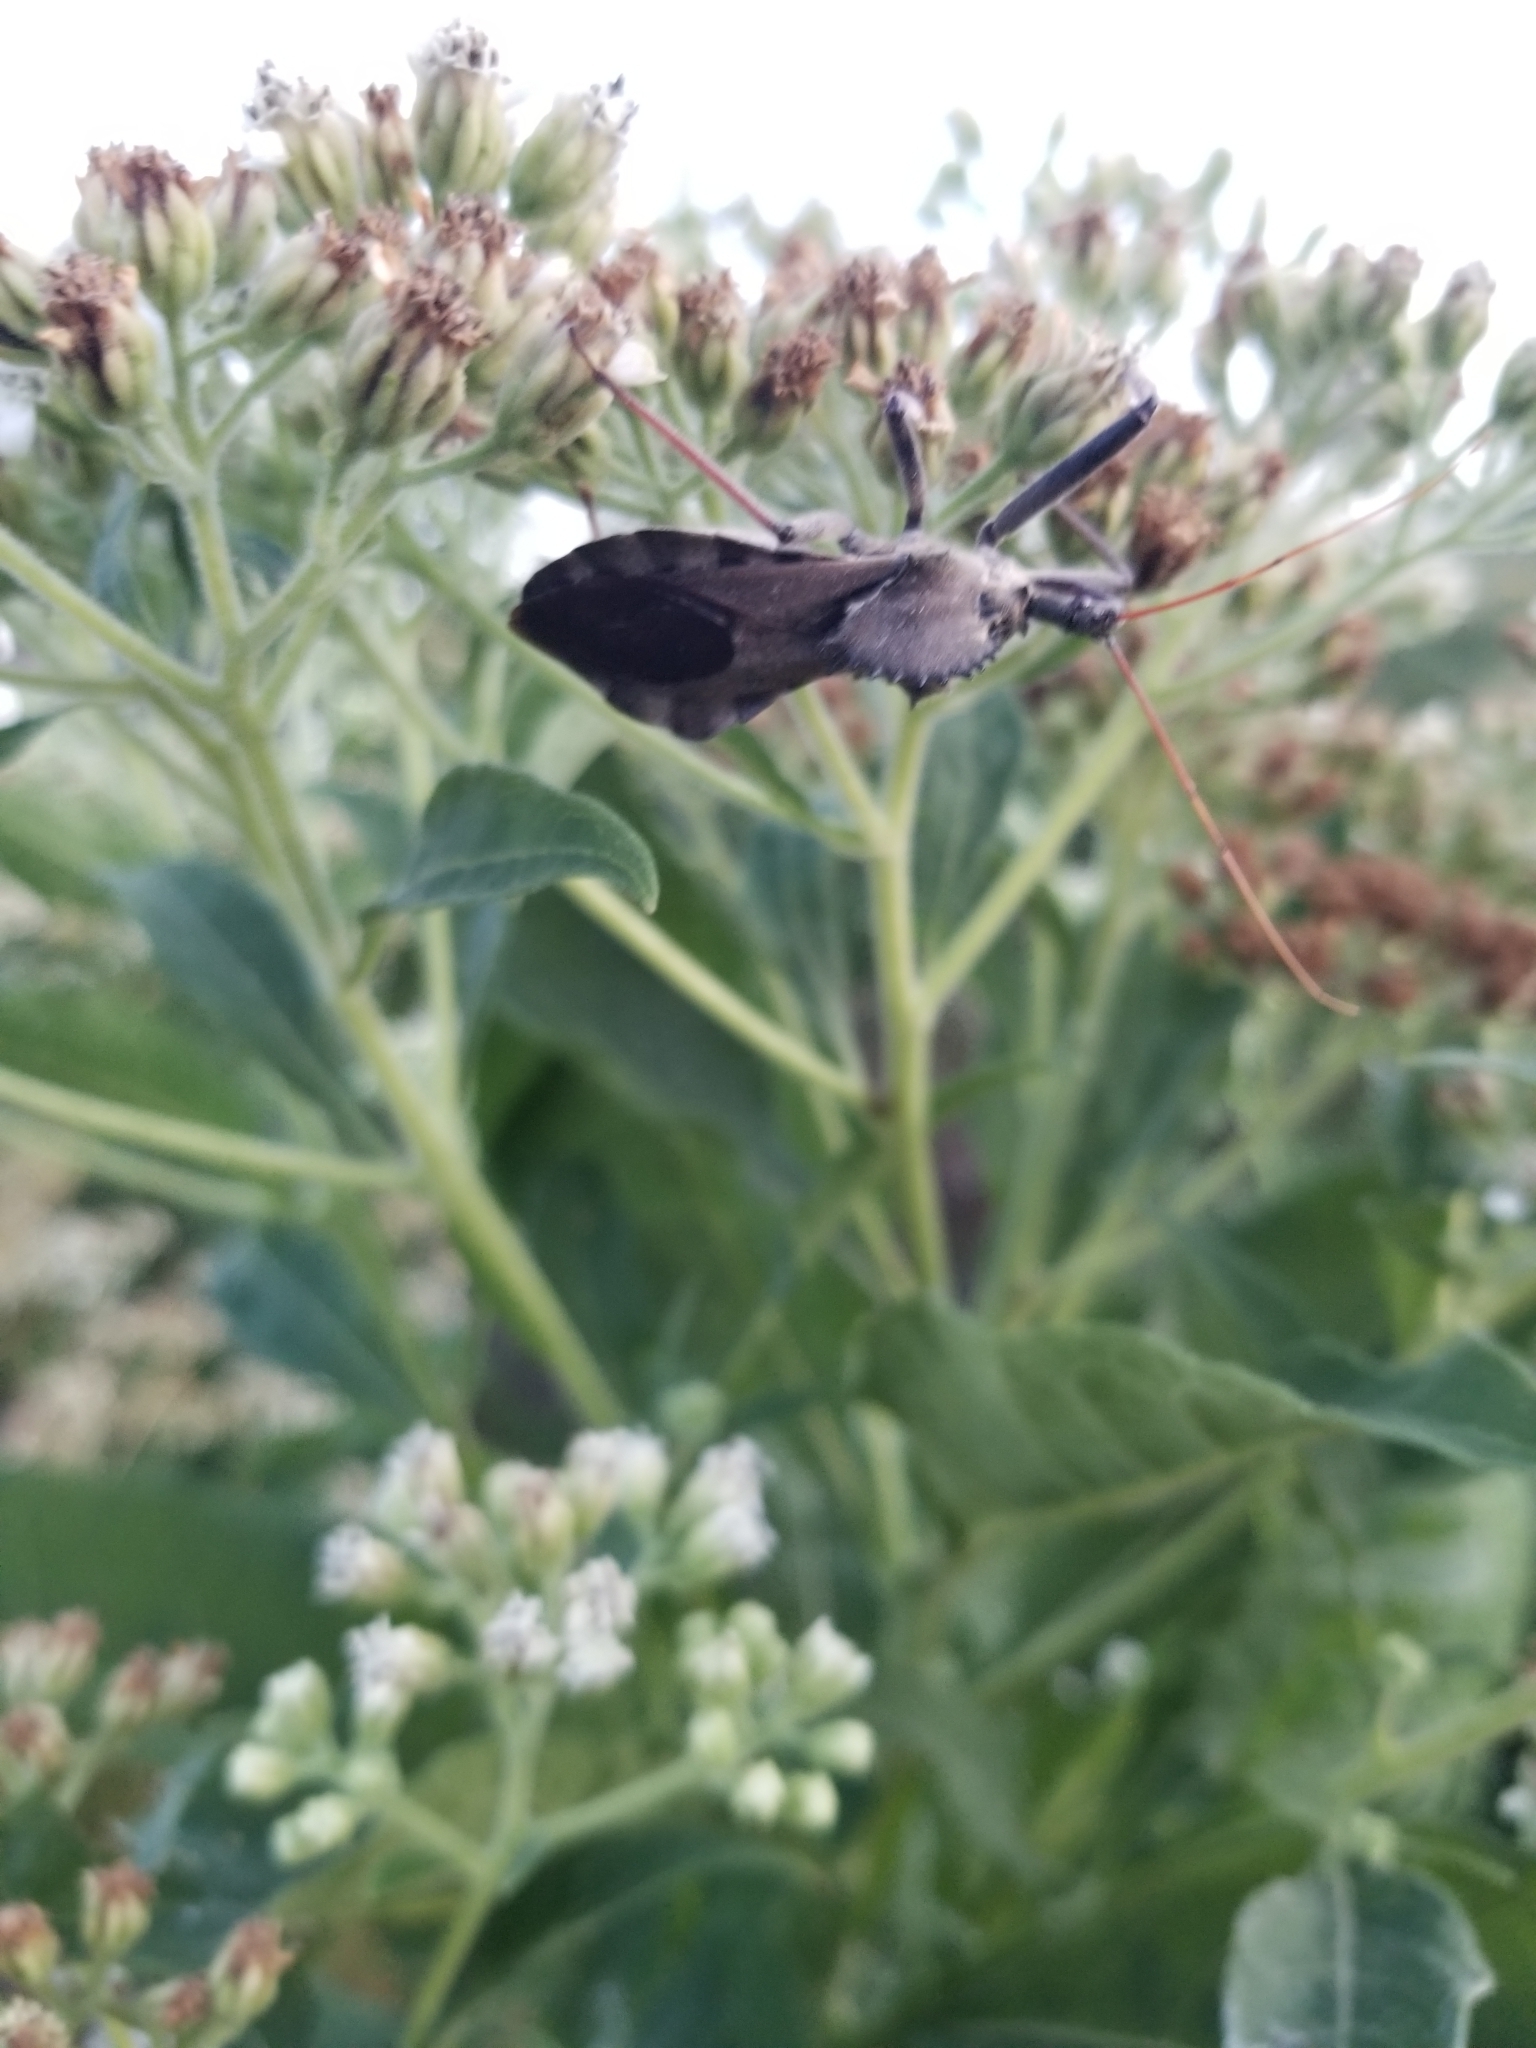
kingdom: Animalia
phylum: Arthropoda
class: Insecta
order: Hemiptera
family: Reduviidae
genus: Arilus
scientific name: Arilus cristatus
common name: North american wheel bug
